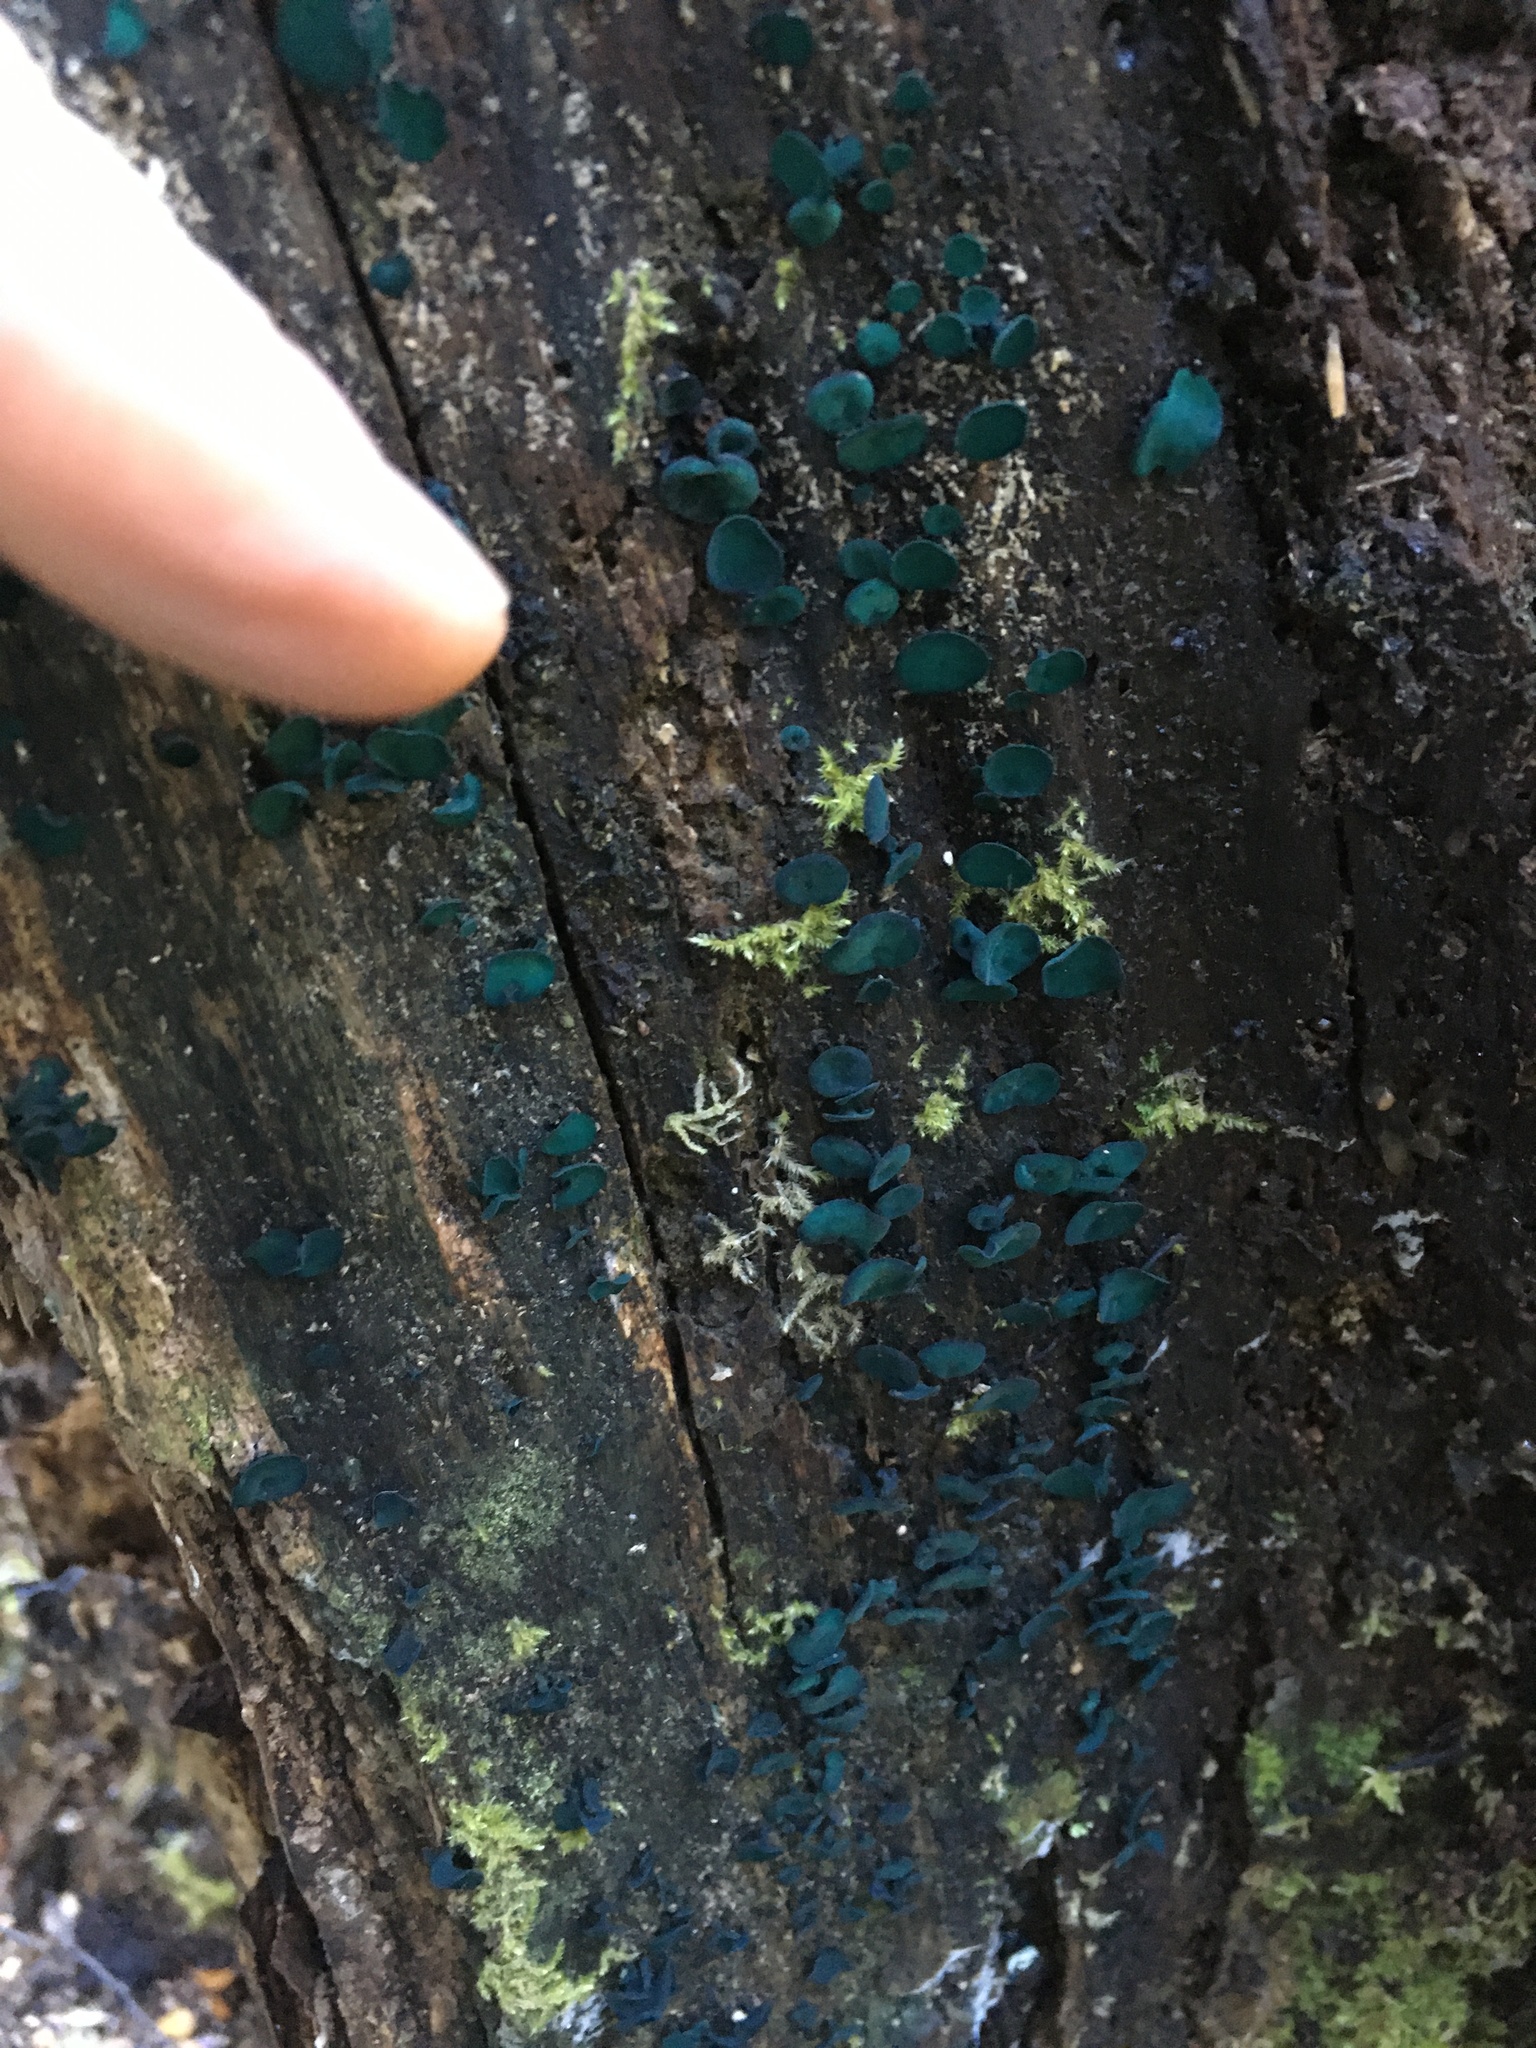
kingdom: Fungi
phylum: Ascomycota
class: Leotiomycetes
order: Helotiales
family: Chlorociboriaceae
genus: Chlorociboria
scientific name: Chlorociboria
